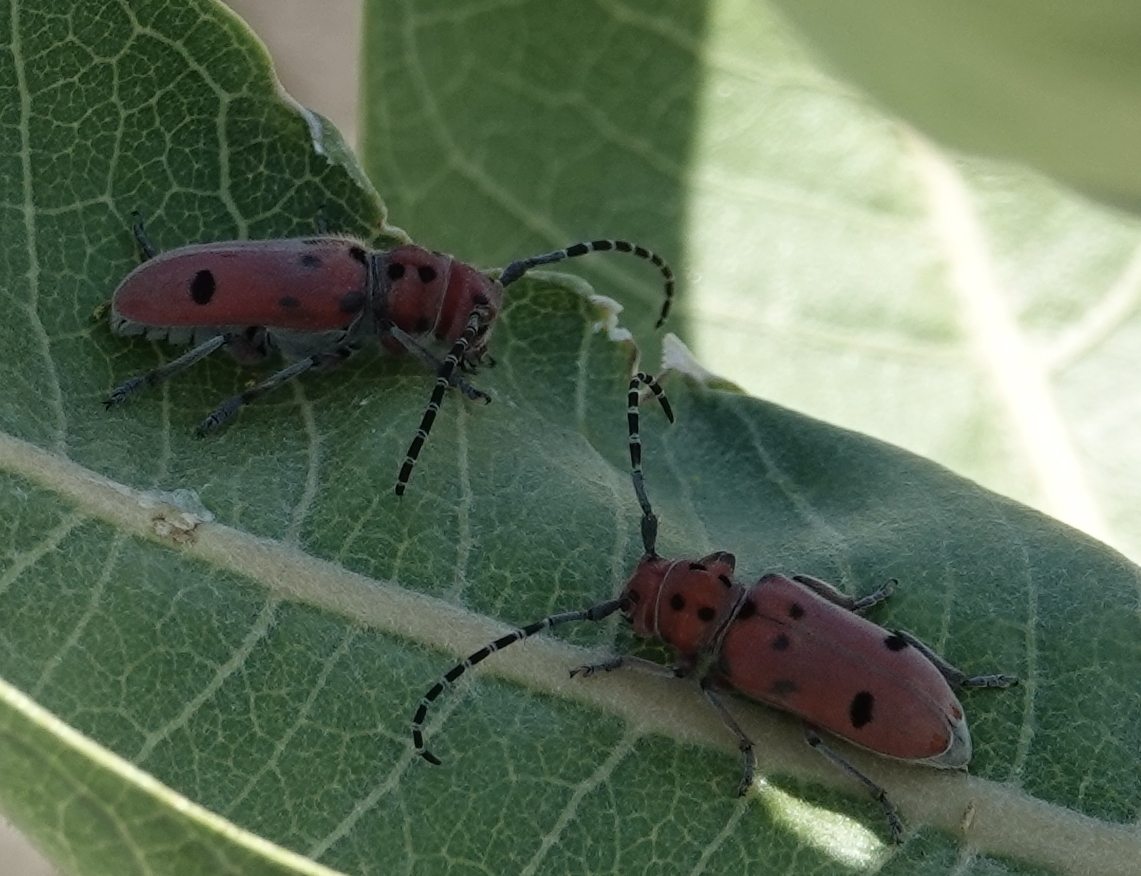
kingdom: Animalia
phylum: Arthropoda
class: Insecta
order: Coleoptera
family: Cerambycidae
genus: Tetraopes
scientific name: Tetraopes femoratus
